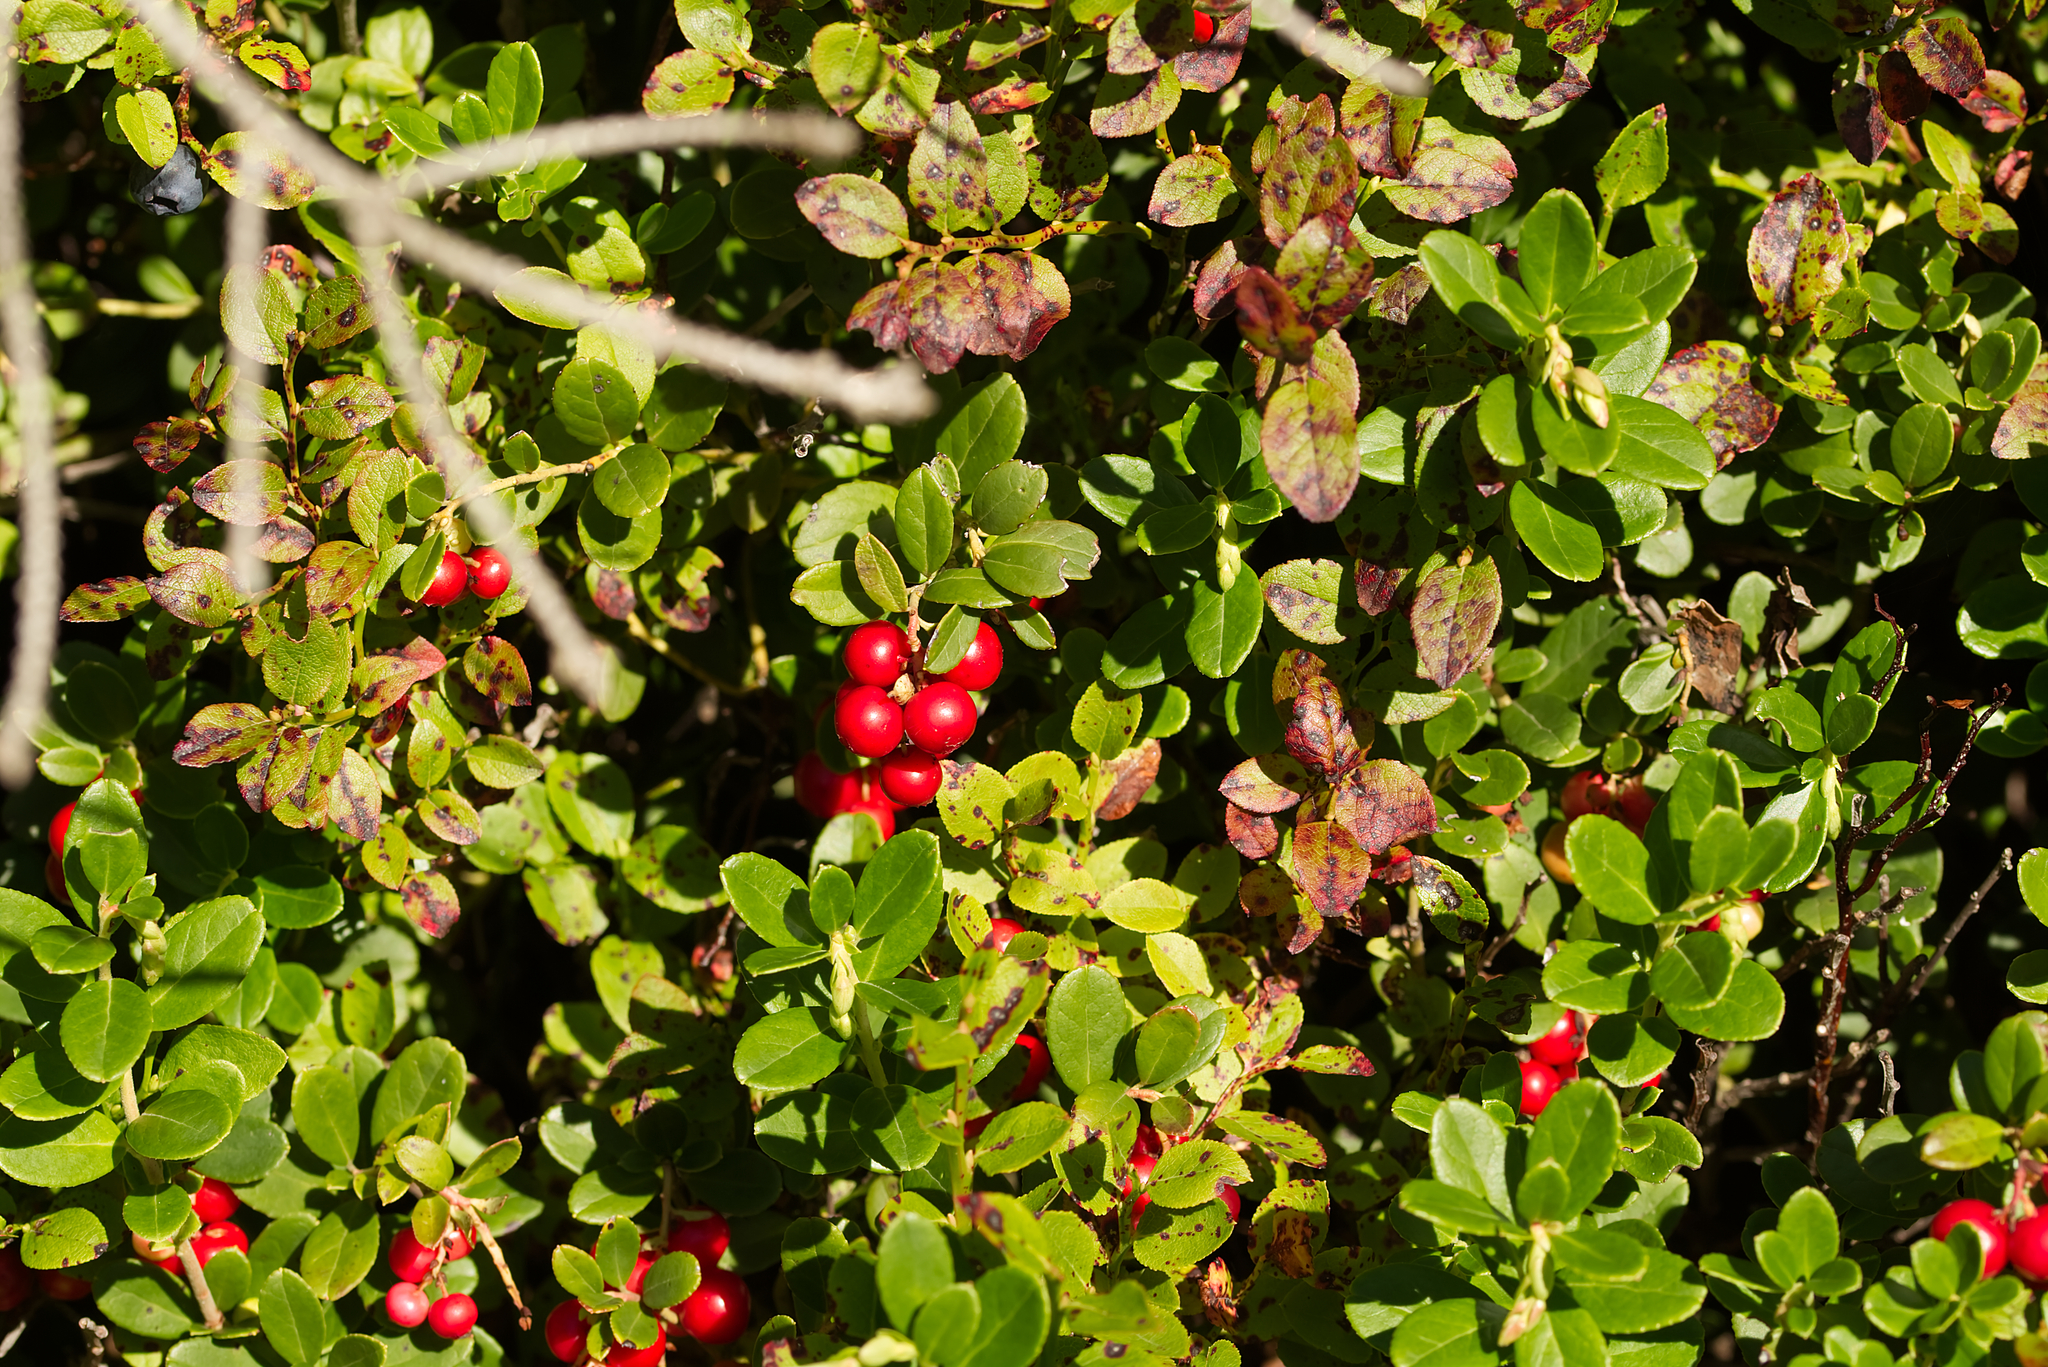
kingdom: Plantae
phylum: Tracheophyta
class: Magnoliopsida
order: Ericales
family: Ericaceae
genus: Vaccinium
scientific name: Vaccinium vitis-idaea
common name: Cowberry
